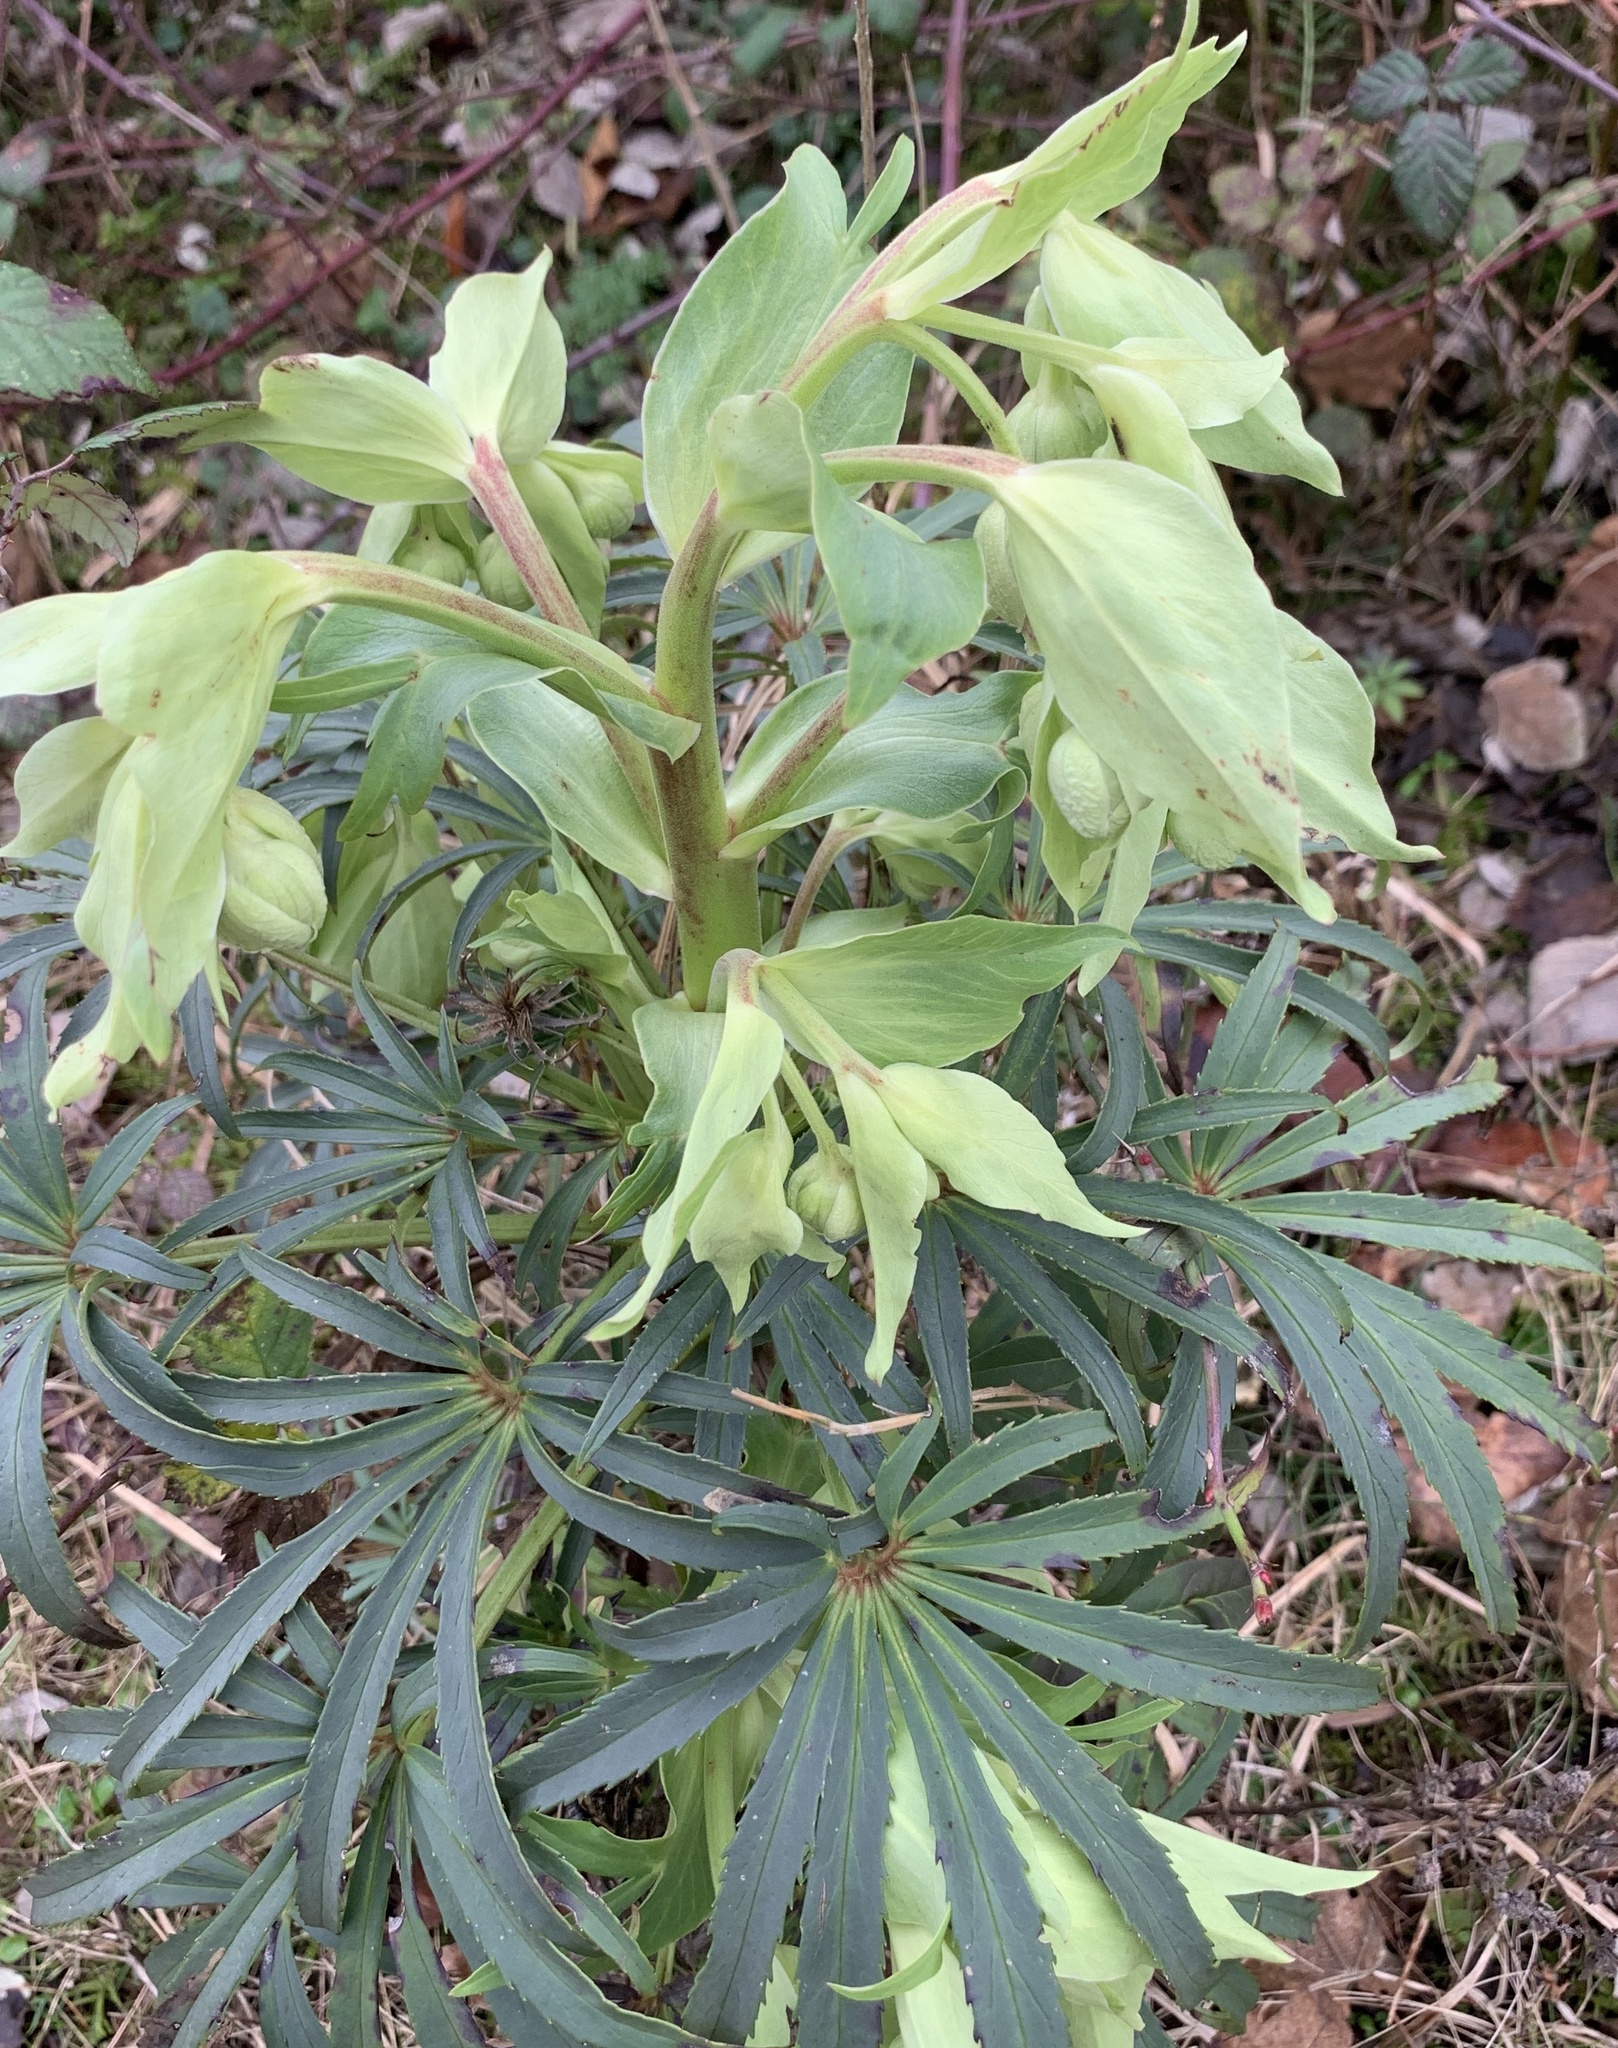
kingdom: Plantae
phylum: Tracheophyta
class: Magnoliopsida
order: Ranunculales
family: Ranunculaceae
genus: Helleborus
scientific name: Helleborus foetidus
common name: Stinking hellebore
